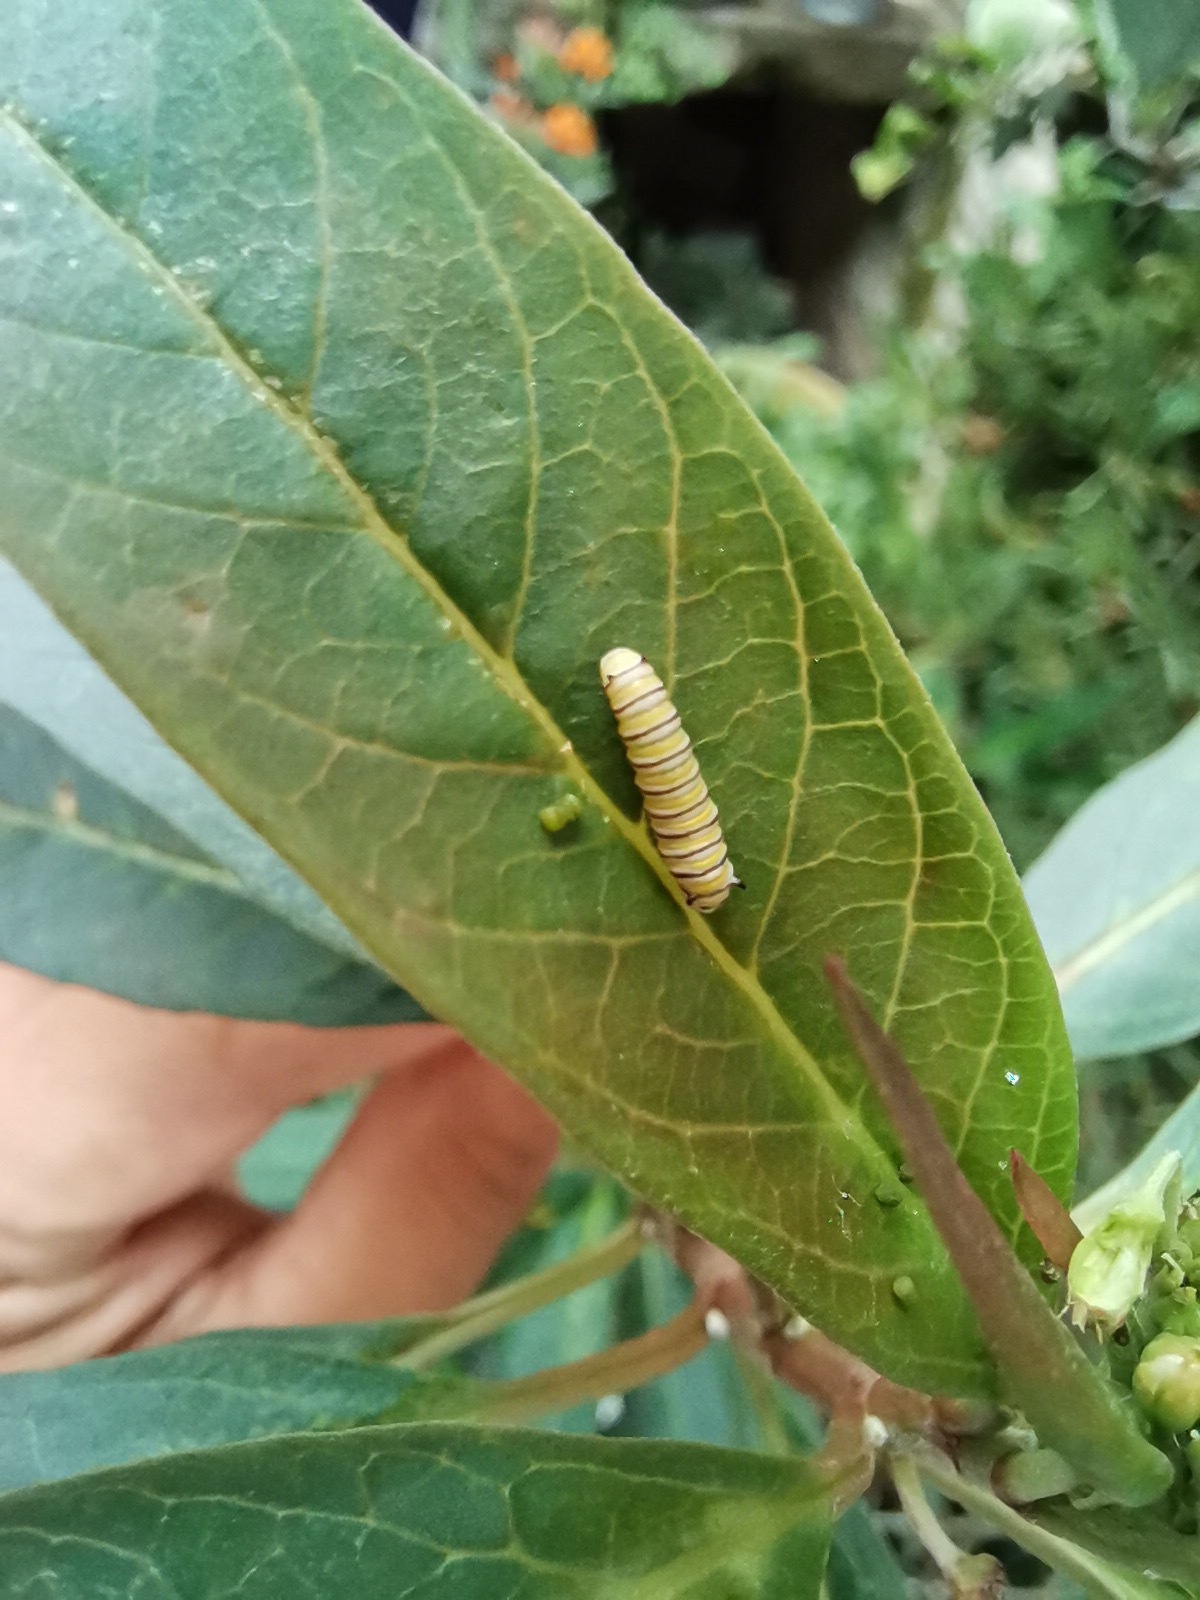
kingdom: Animalia
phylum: Arthropoda
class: Insecta
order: Lepidoptera
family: Nymphalidae
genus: Danaus
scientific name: Danaus plexippus
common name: Monarch
